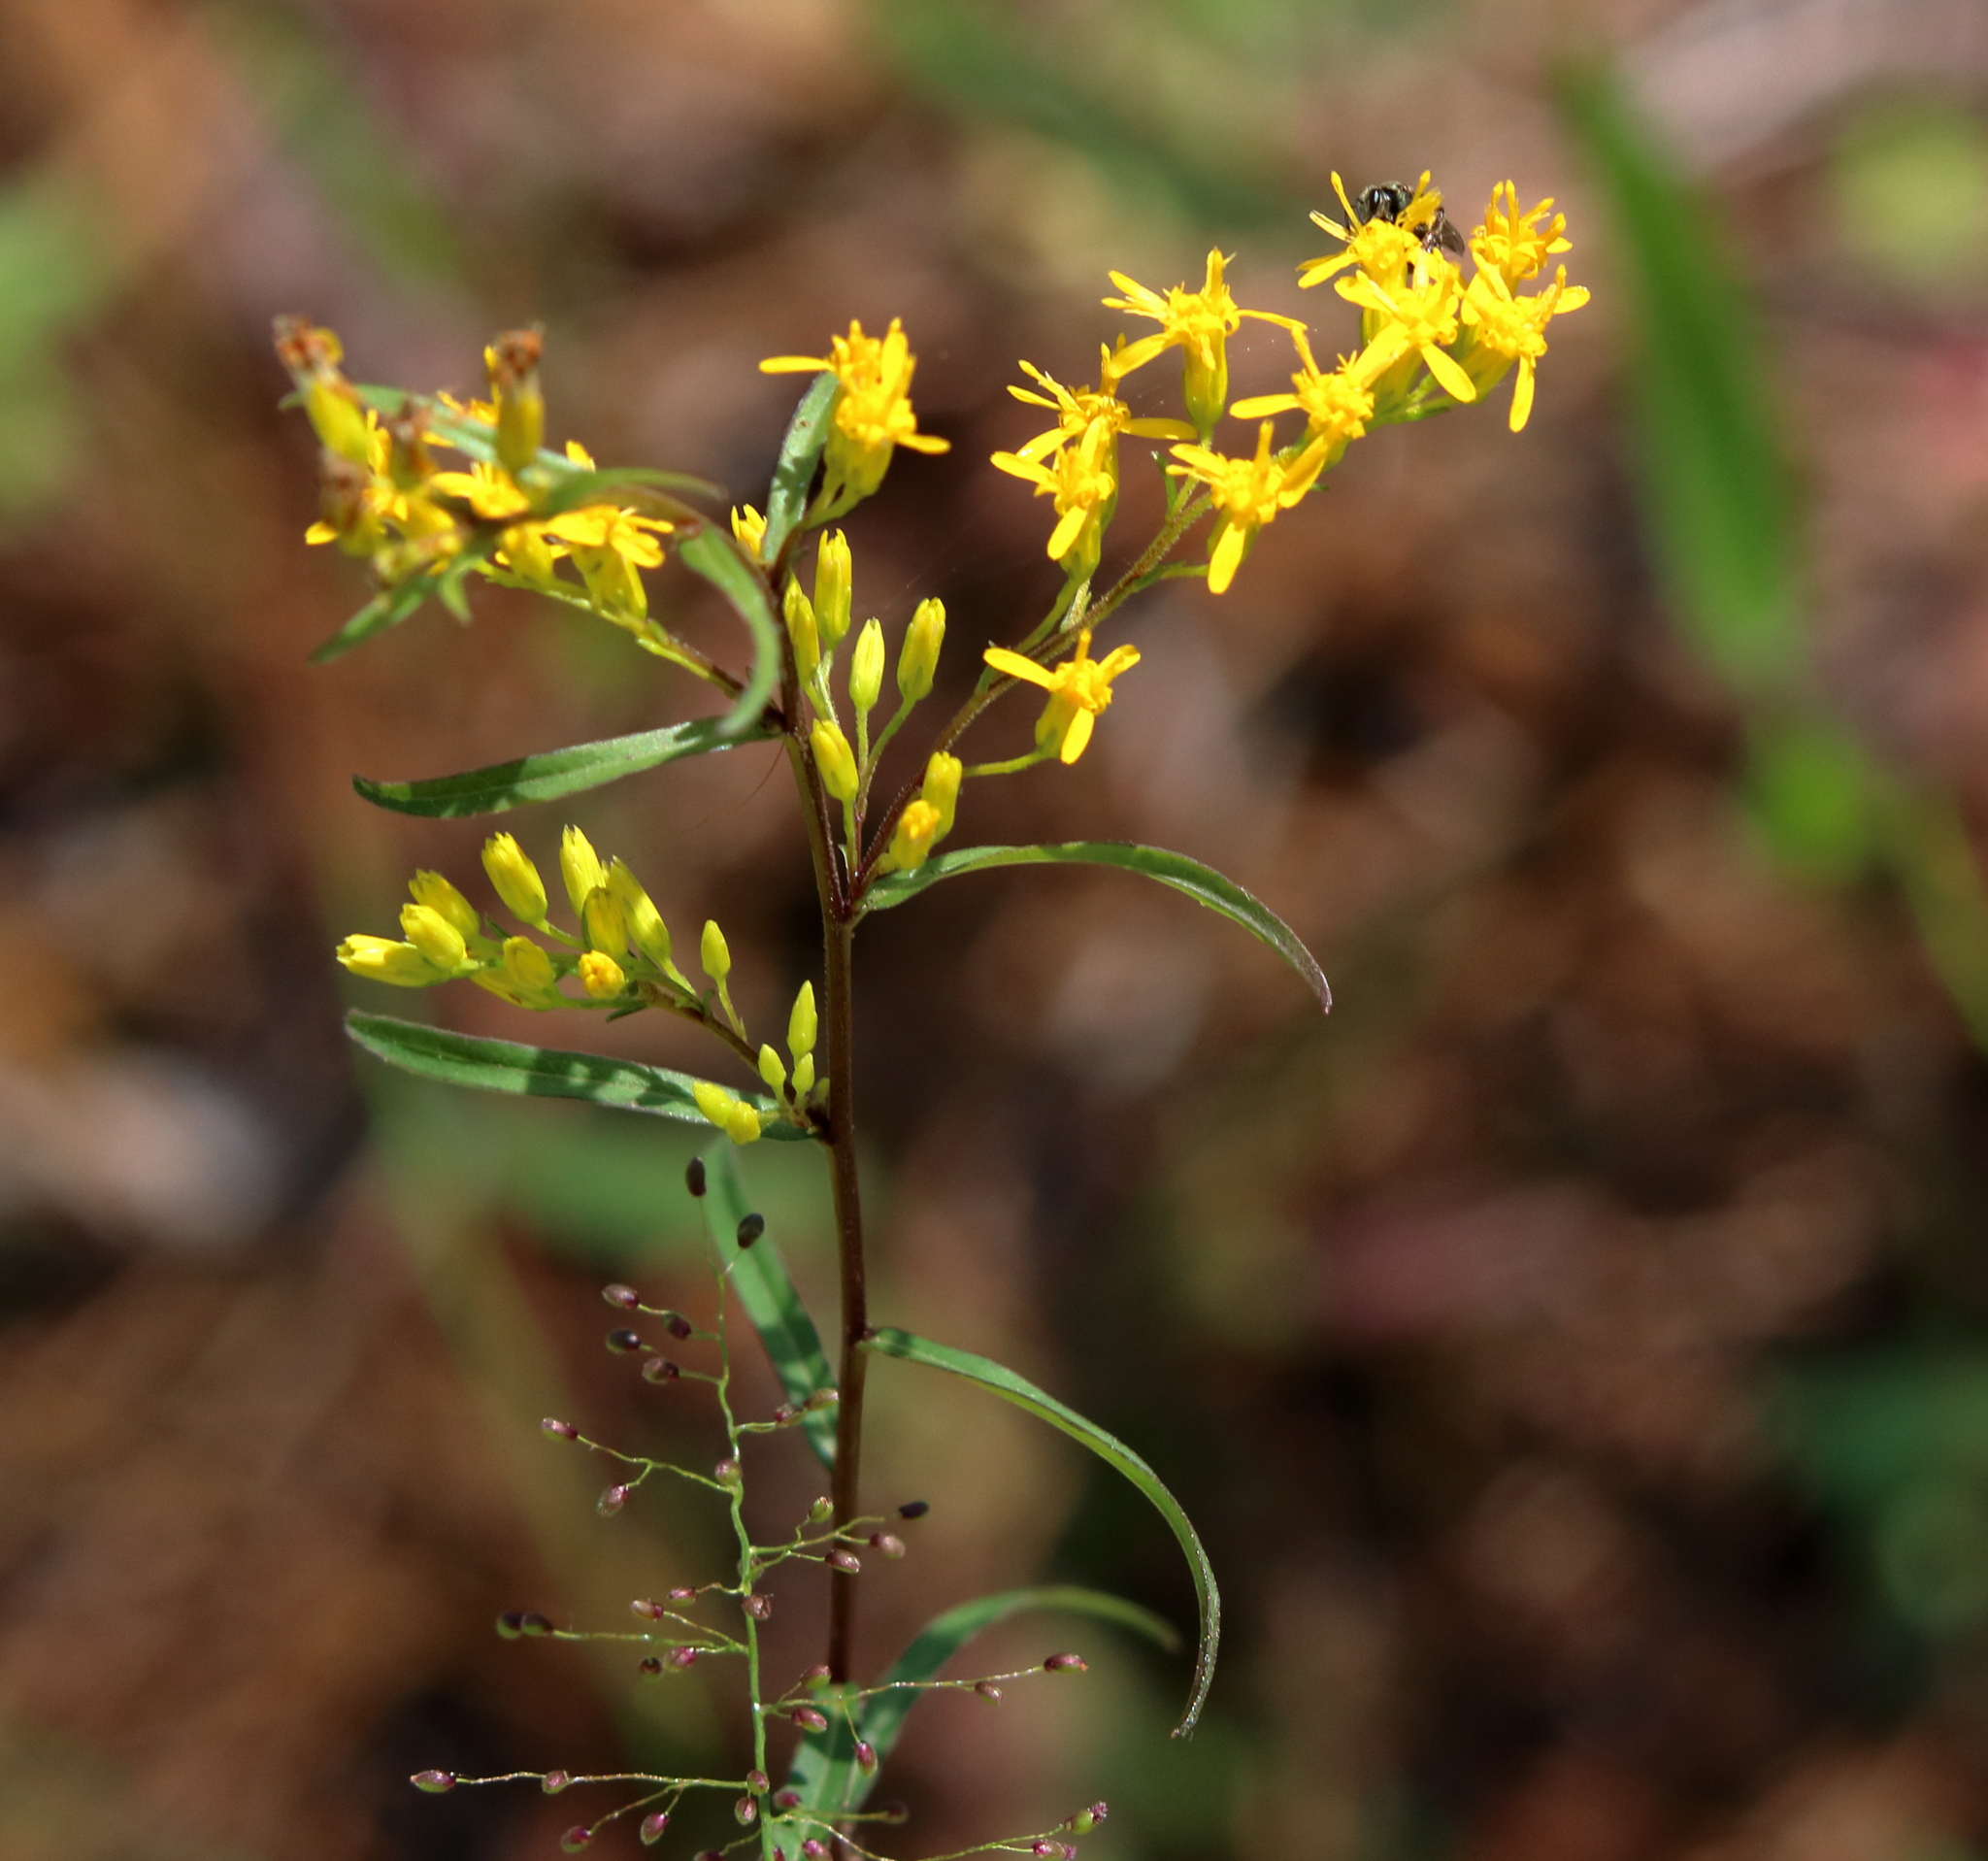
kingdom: Plantae
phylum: Tracheophyta
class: Magnoliopsida
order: Asterales
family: Asteraceae
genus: Solidago
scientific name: Solidago odora
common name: Anise-scented goldenrod
